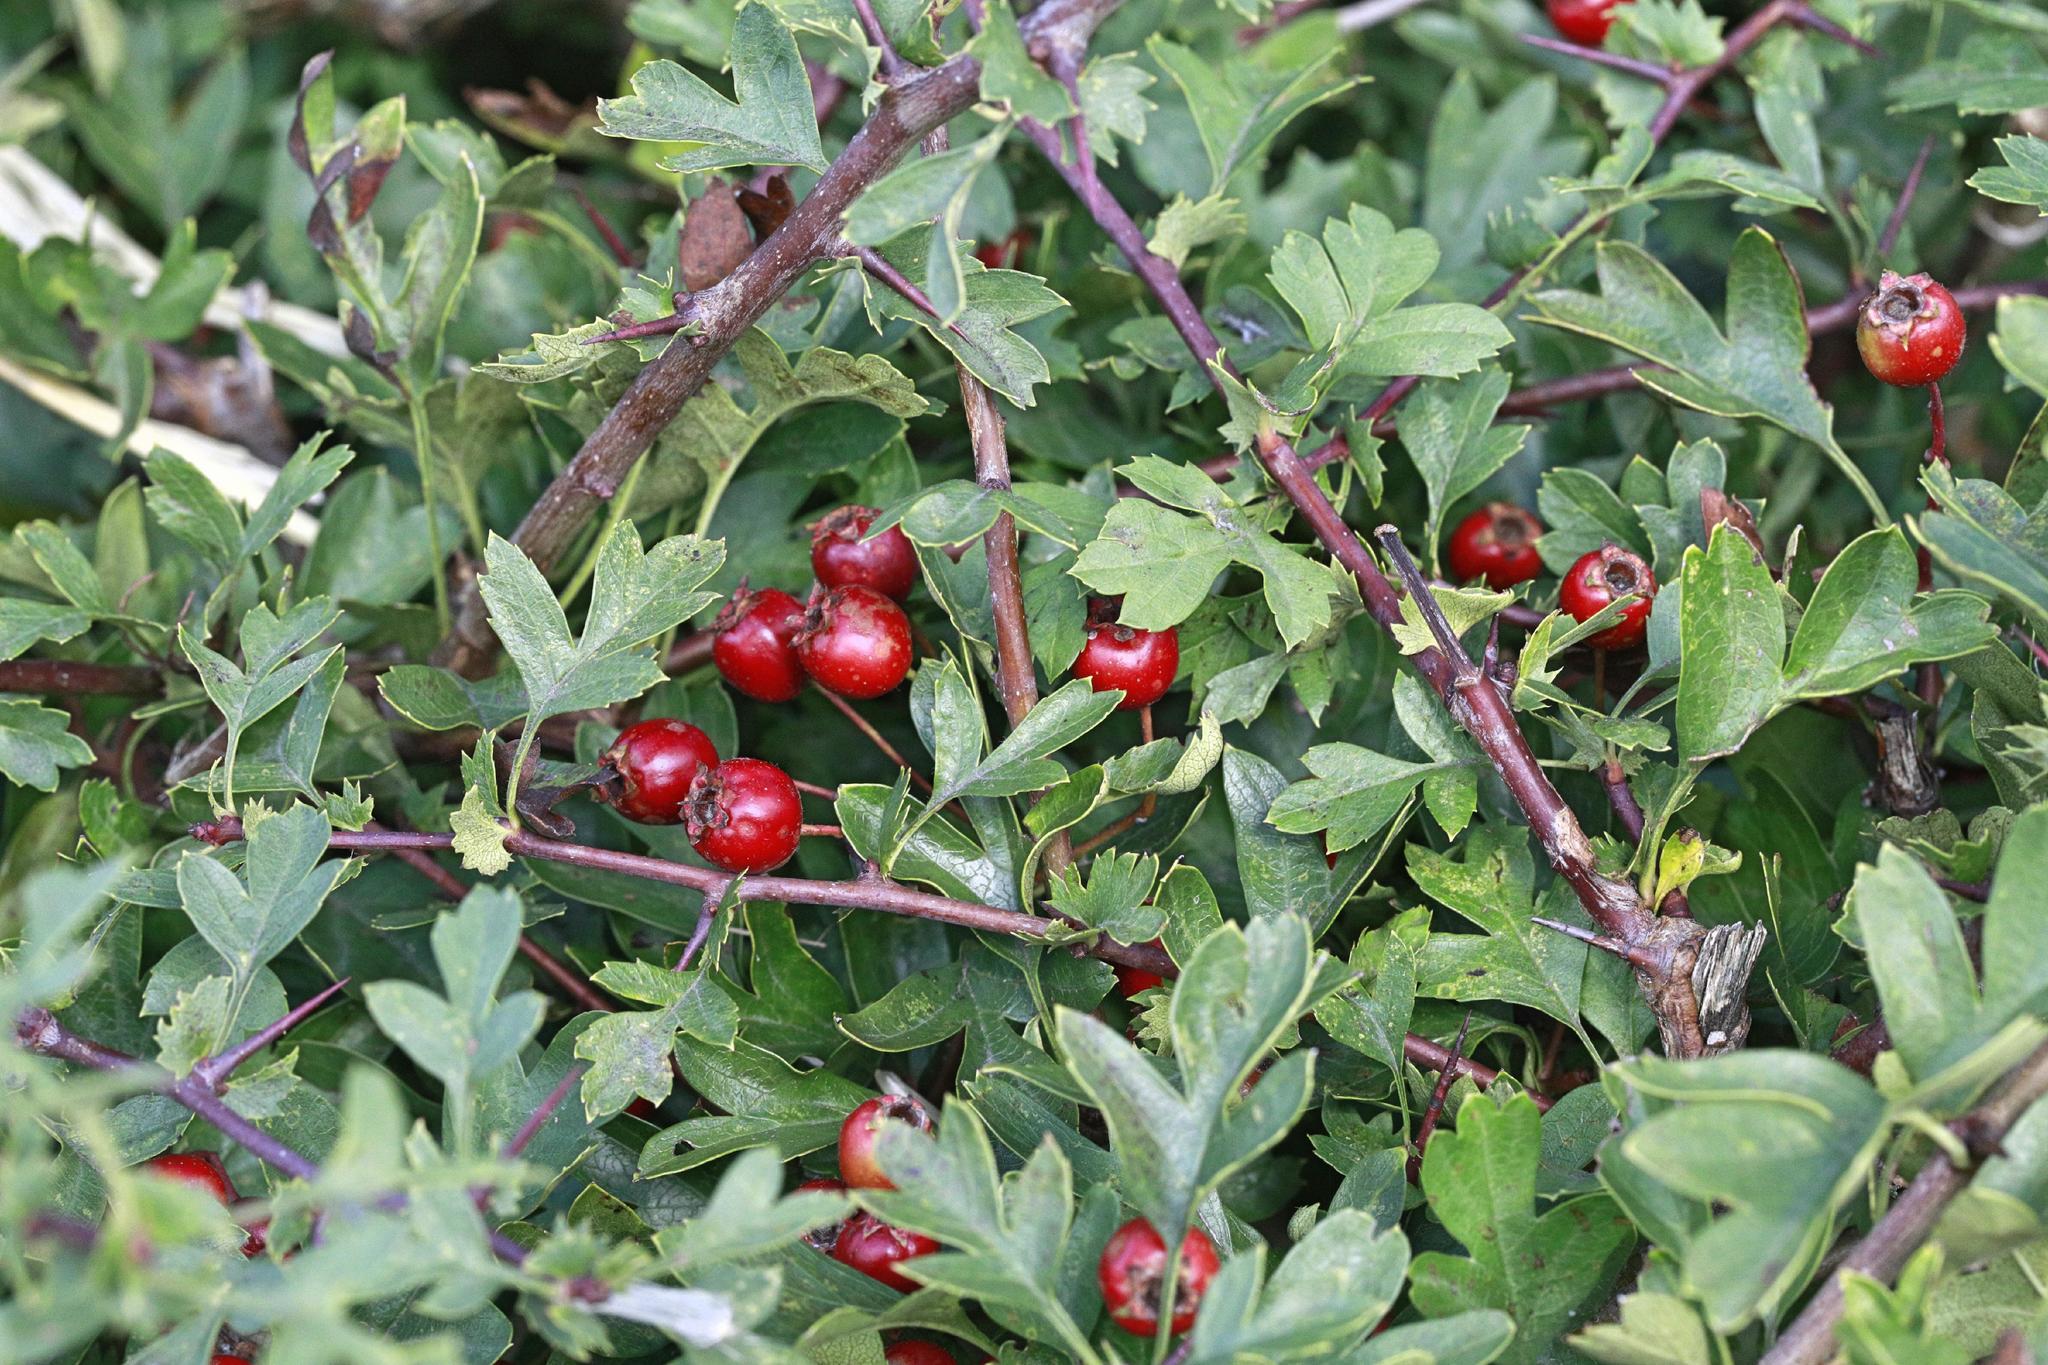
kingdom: Plantae
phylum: Tracheophyta
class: Magnoliopsida
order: Rosales
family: Rosaceae
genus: Crataegus
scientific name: Crataegus monogyna
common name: Hawthorn
